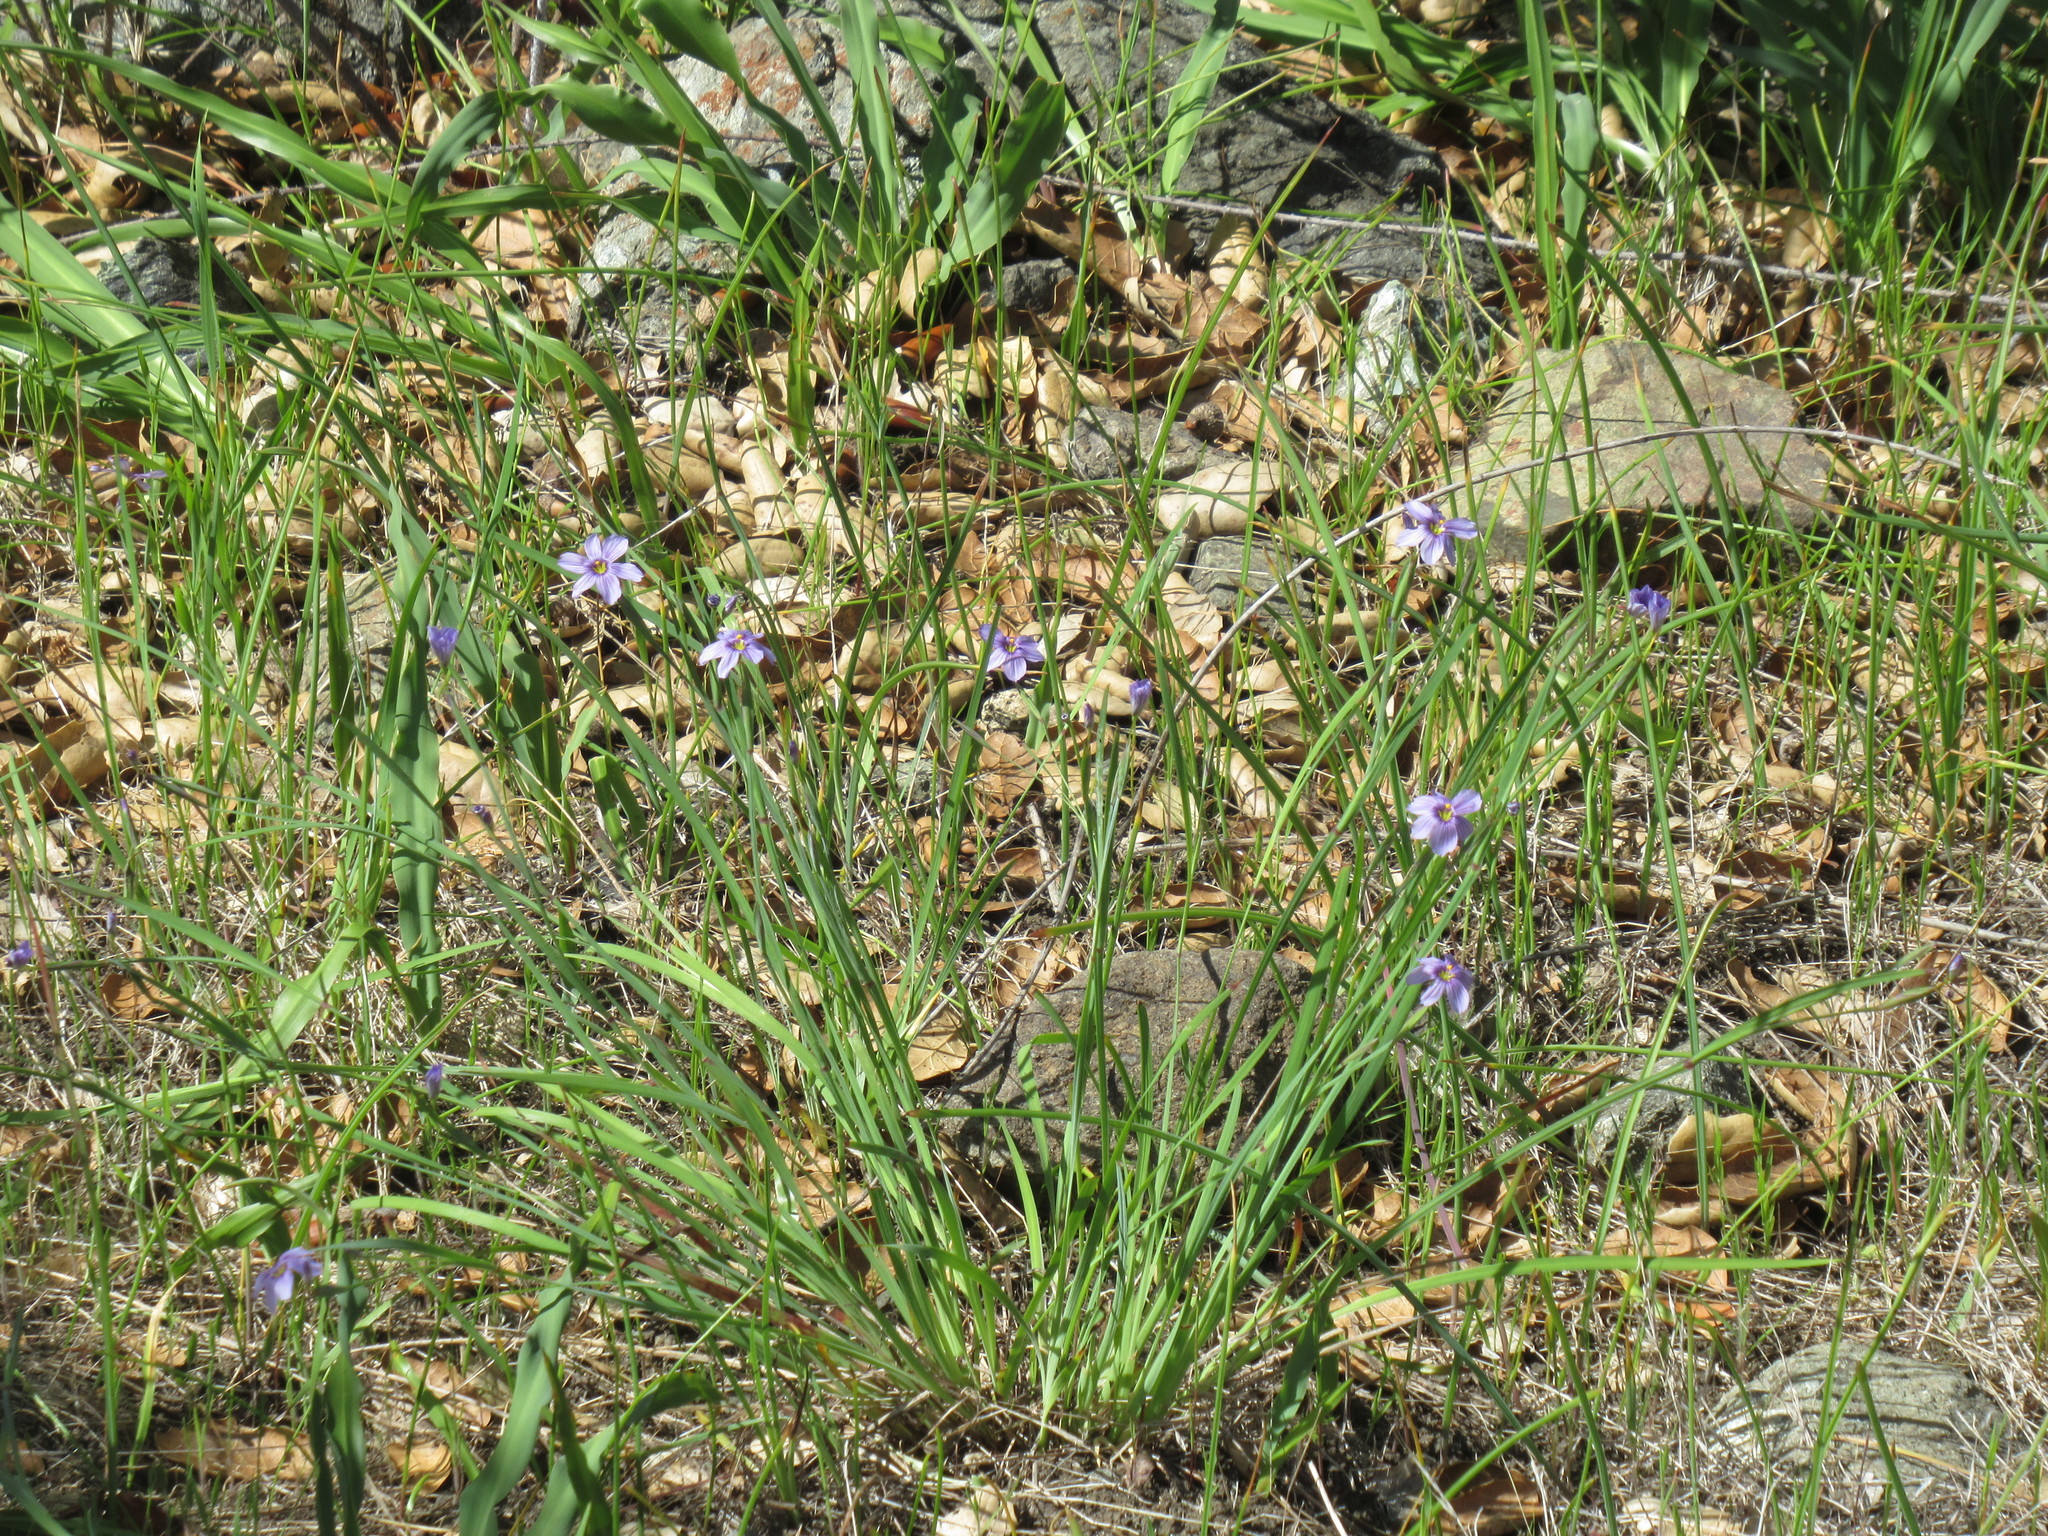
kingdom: Plantae
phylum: Tracheophyta
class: Liliopsida
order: Asparagales
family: Iridaceae
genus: Sisyrinchium
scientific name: Sisyrinchium bellum
